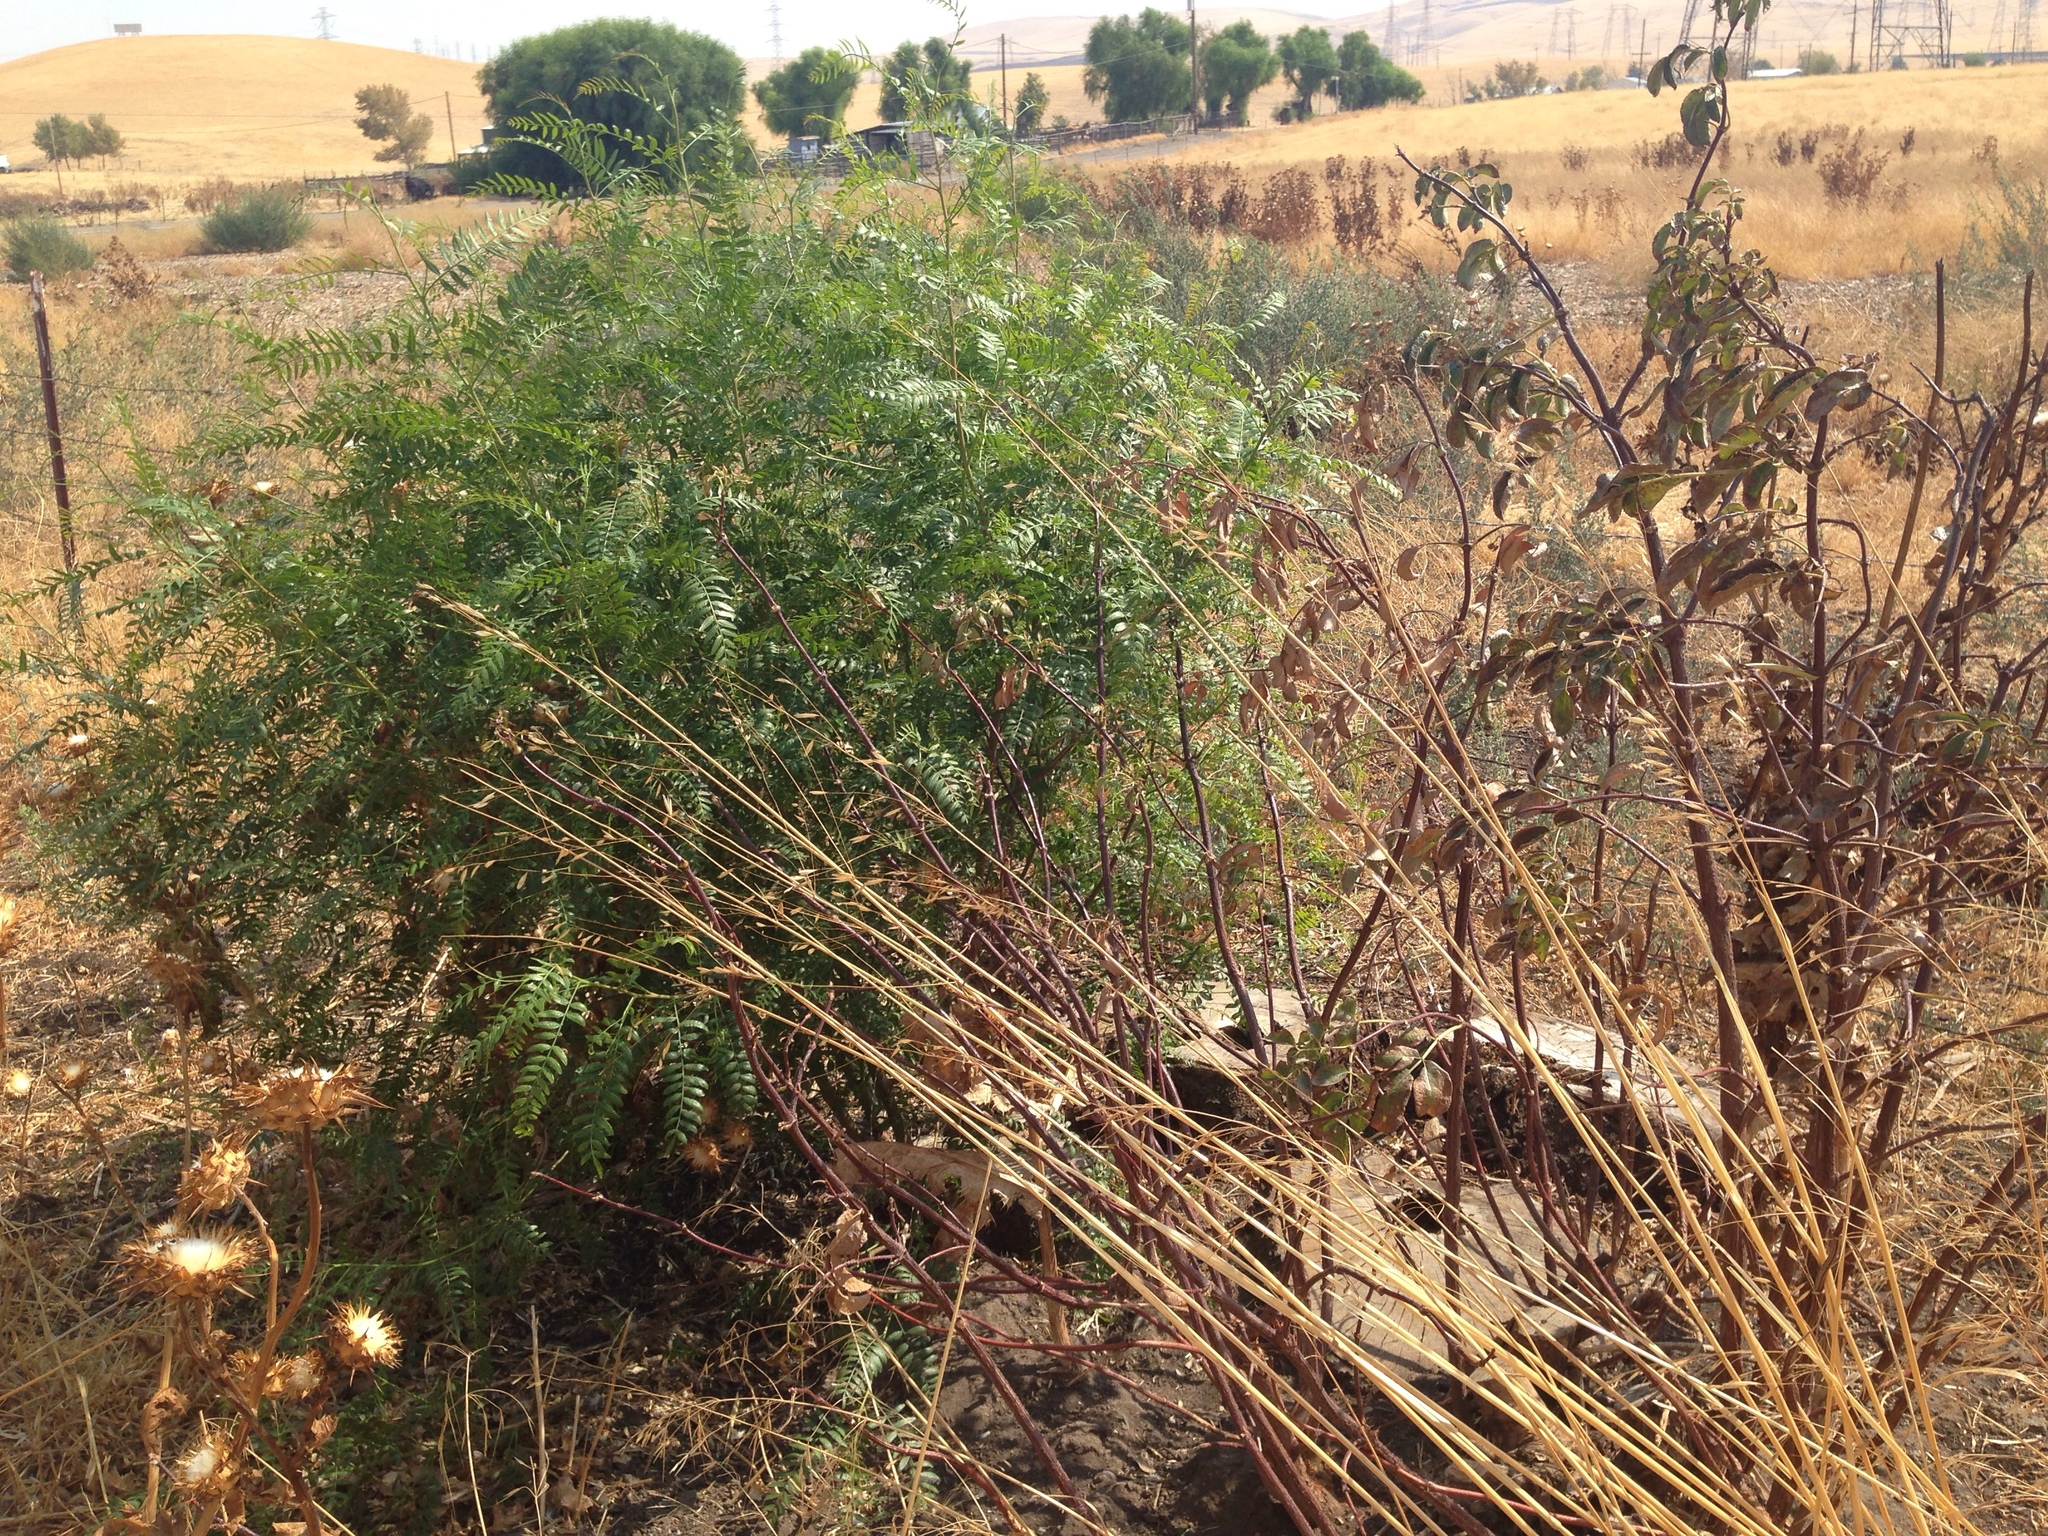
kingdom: Plantae
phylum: Tracheophyta
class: Magnoliopsida
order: Sapindales
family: Anacardiaceae
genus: Schinus
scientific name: Schinus molle
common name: Peruvian peppertree
